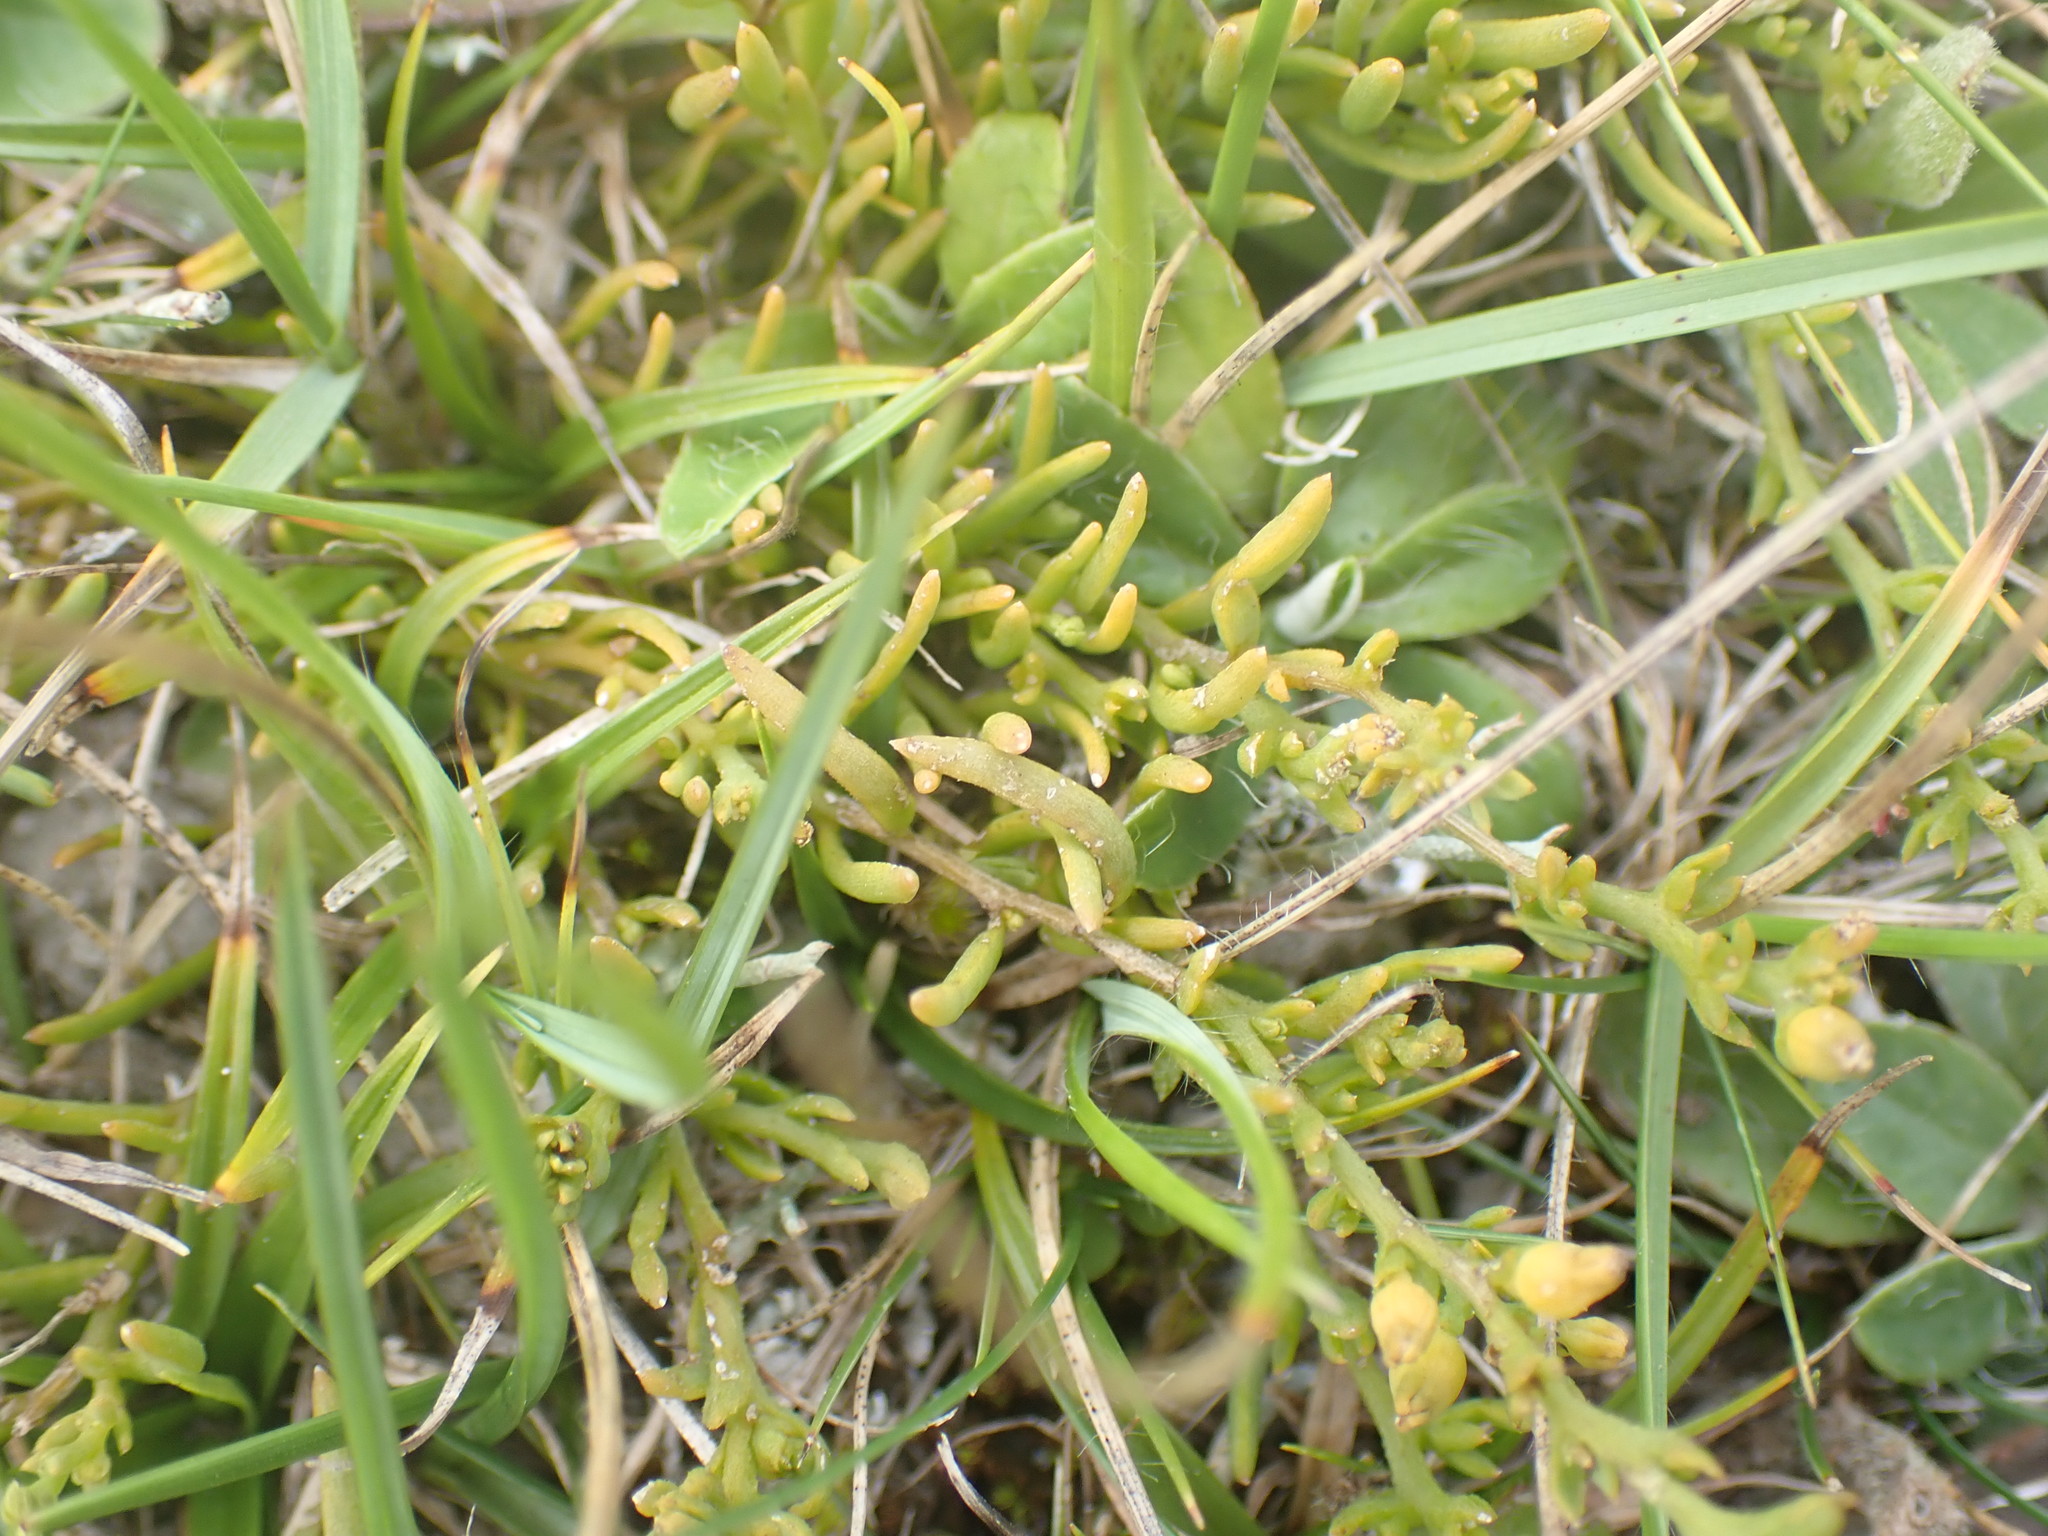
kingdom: Plantae
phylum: Tracheophyta
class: Magnoliopsida
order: Santalales
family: Thesiaceae
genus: Thesium
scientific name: Thesium humifusum
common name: Bastard-toadflax
